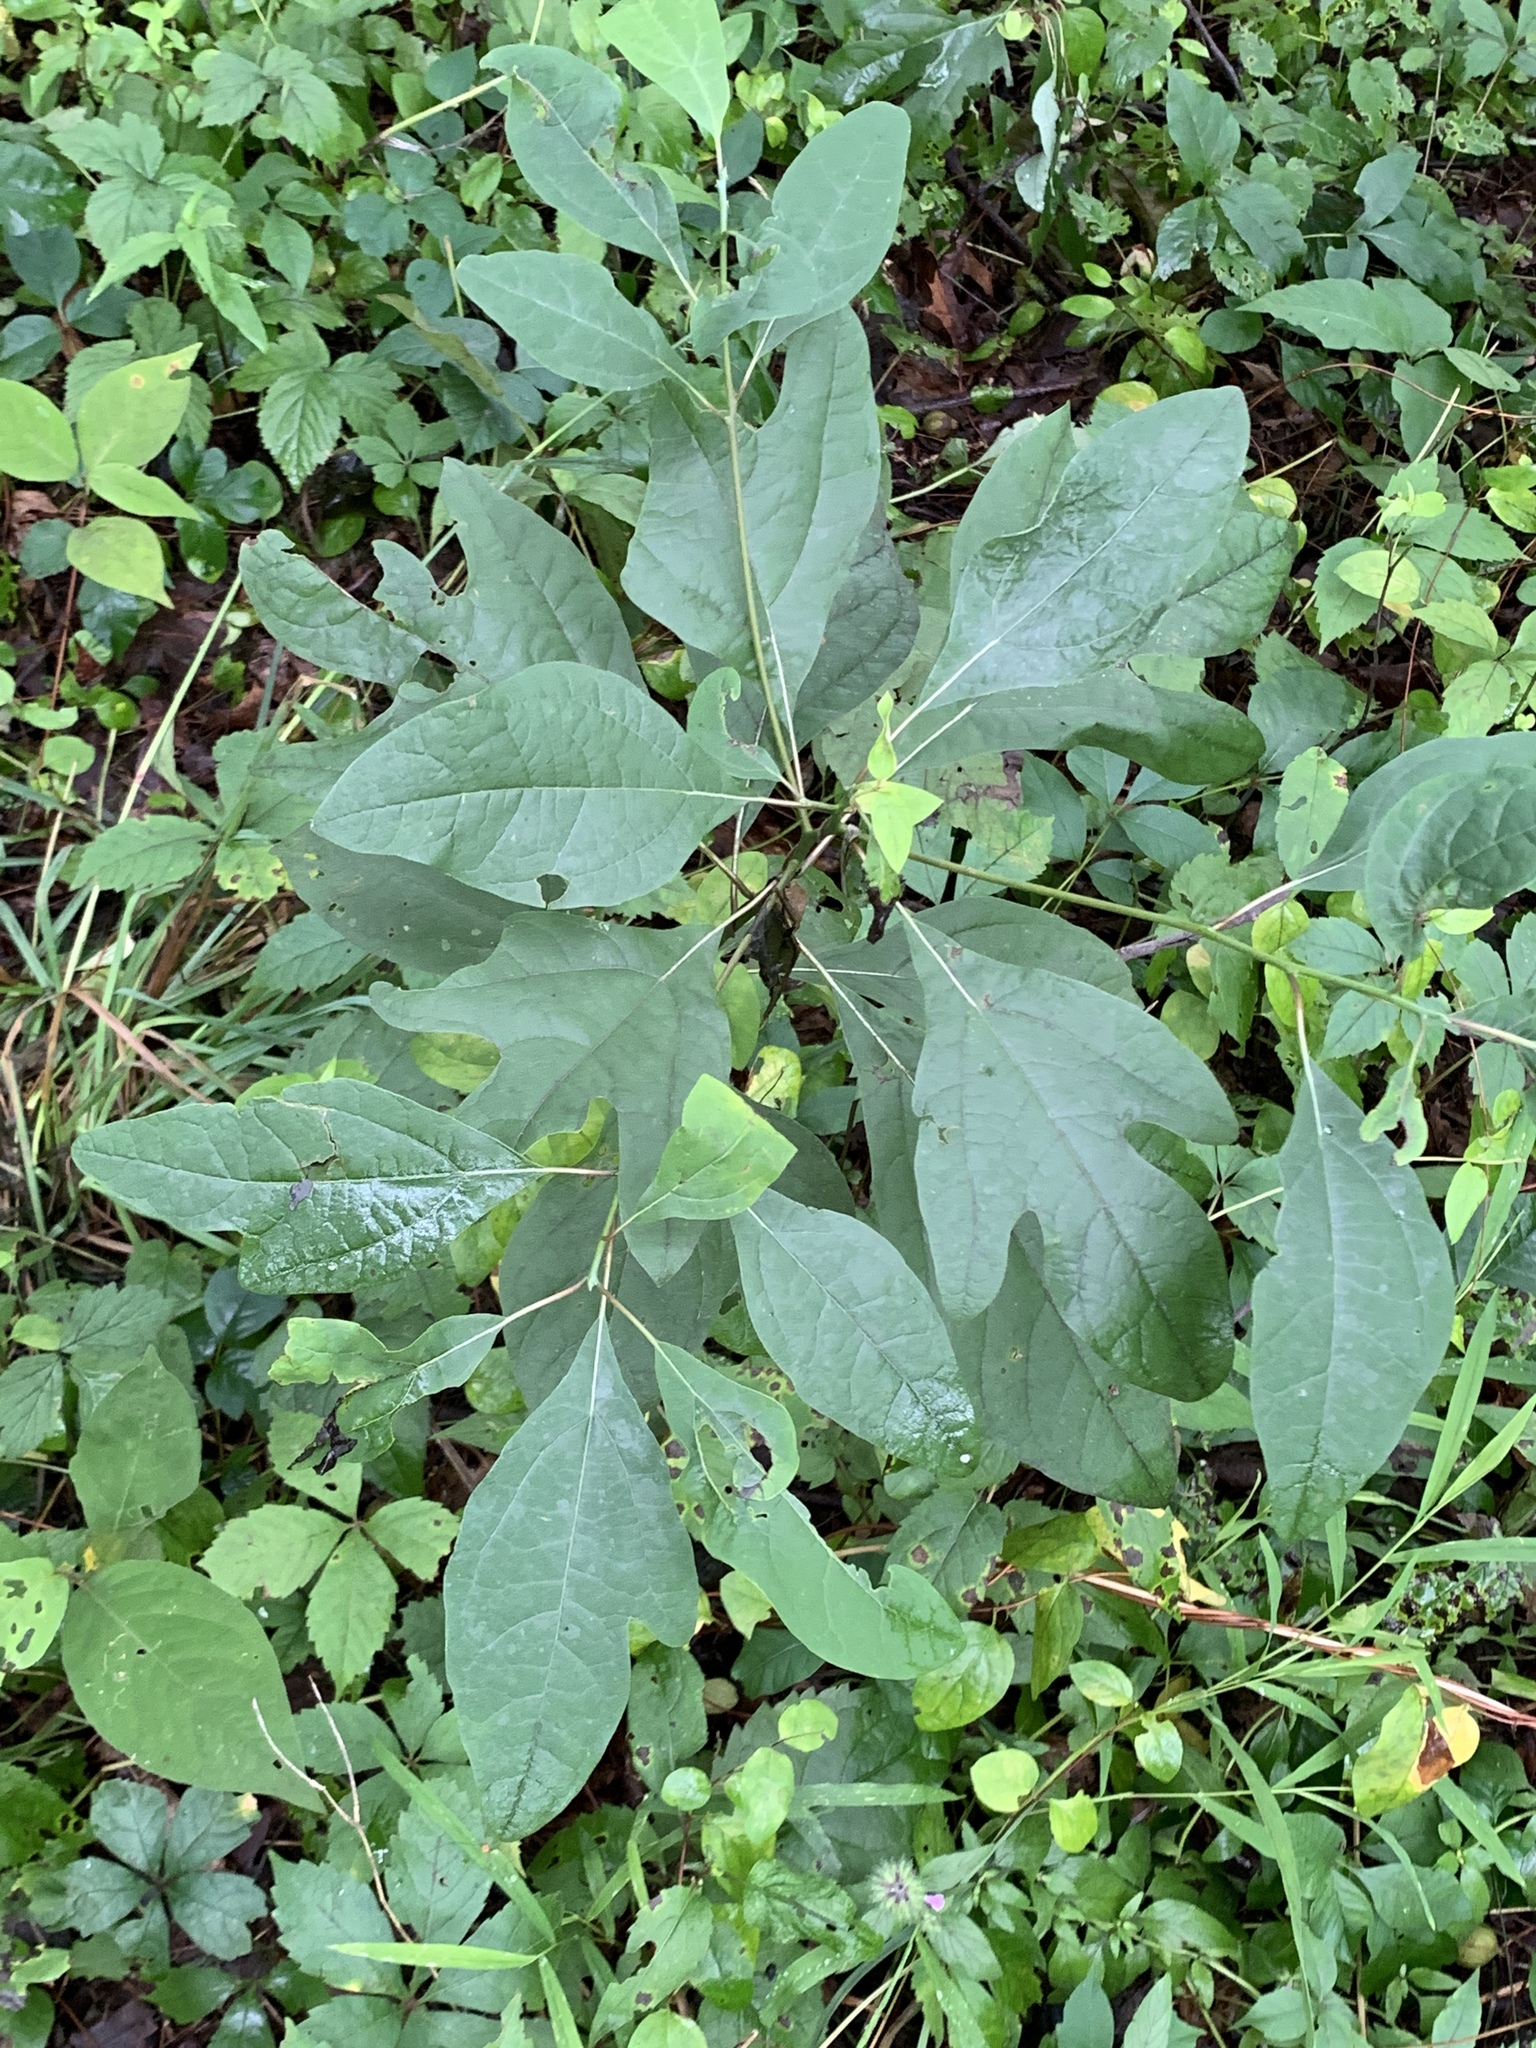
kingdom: Plantae
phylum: Tracheophyta
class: Magnoliopsida
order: Laurales
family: Lauraceae
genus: Sassafras
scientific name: Sassafras albidum
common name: Sassafras
